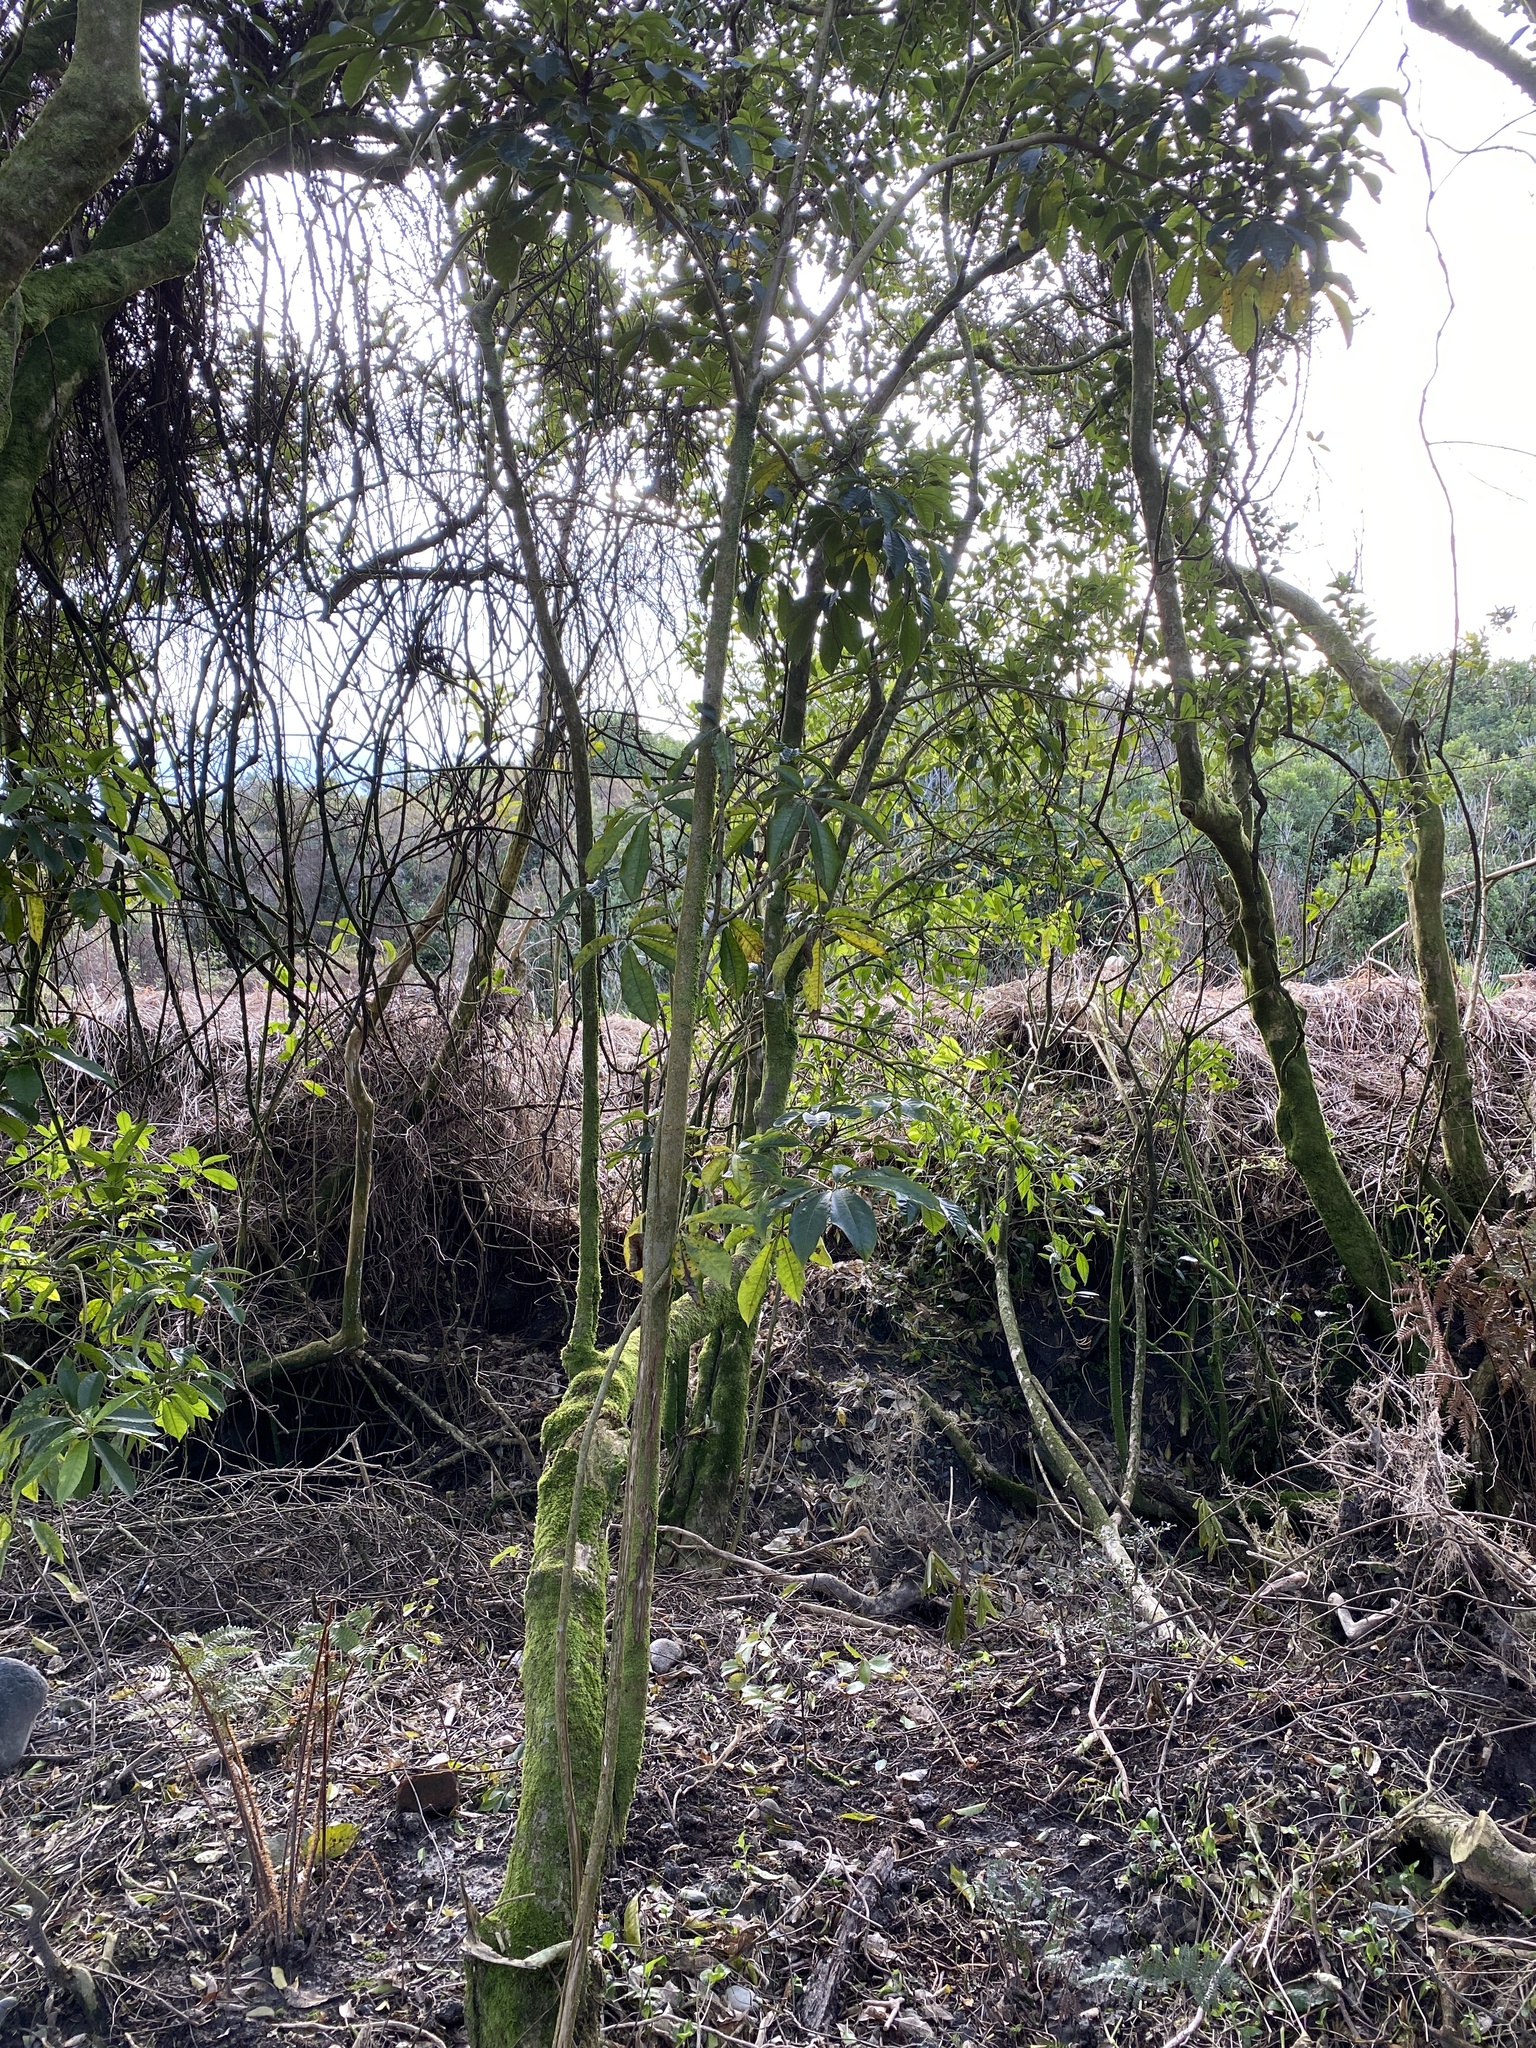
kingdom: Plantae
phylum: Tracheophyta
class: Magnoliopsida
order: Apiales
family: Araliaceae
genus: Schefflera
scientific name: Schefflera digitata
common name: Pate
